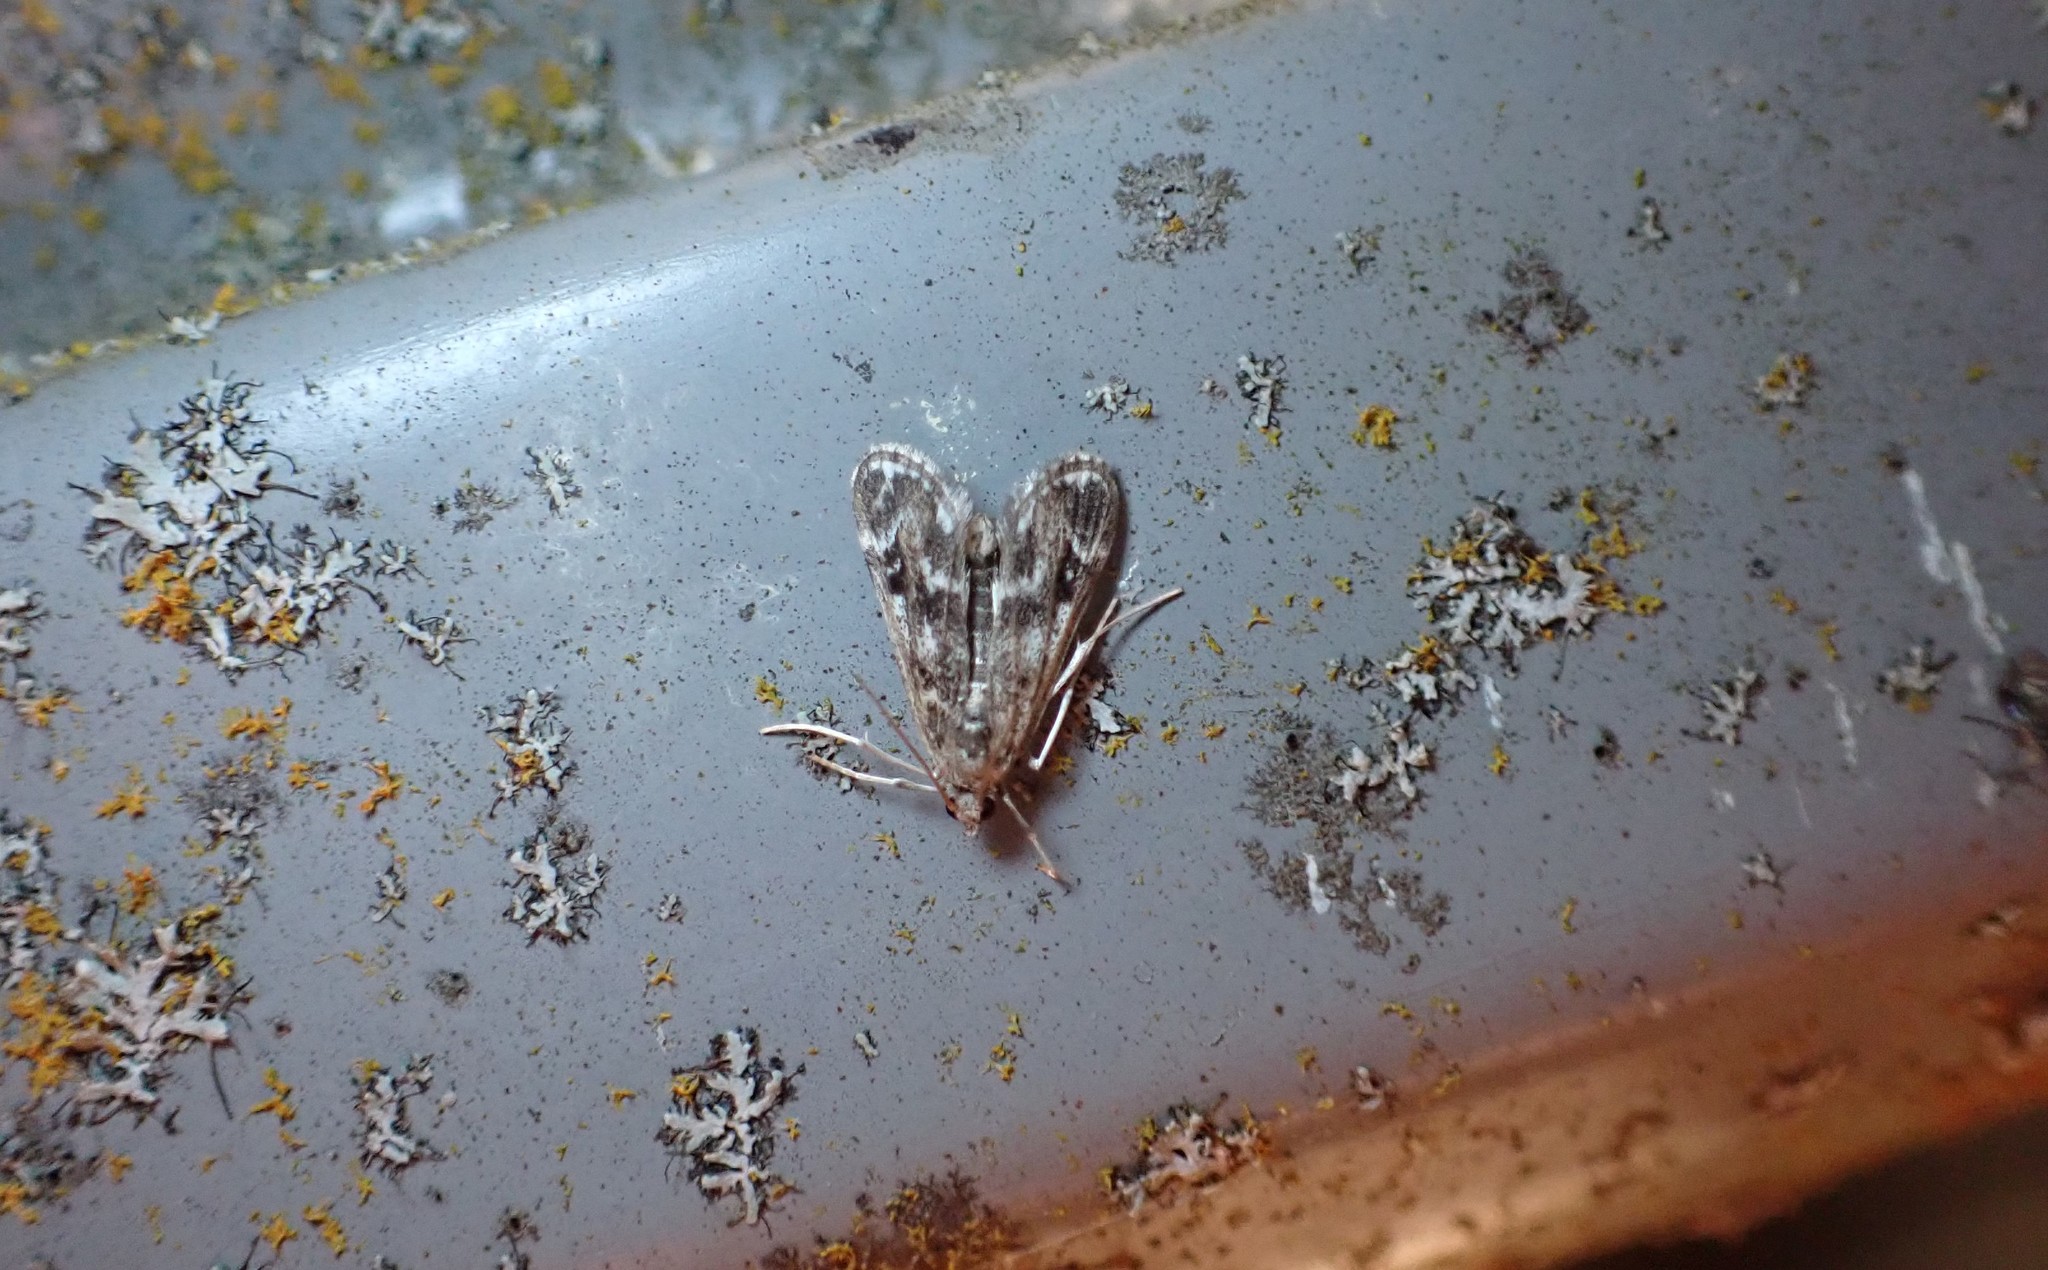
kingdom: Animalia
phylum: Arthropoda
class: Insecta
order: Lepidoptera
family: Crambidae
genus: Hygraula
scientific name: Hygraula nitens
